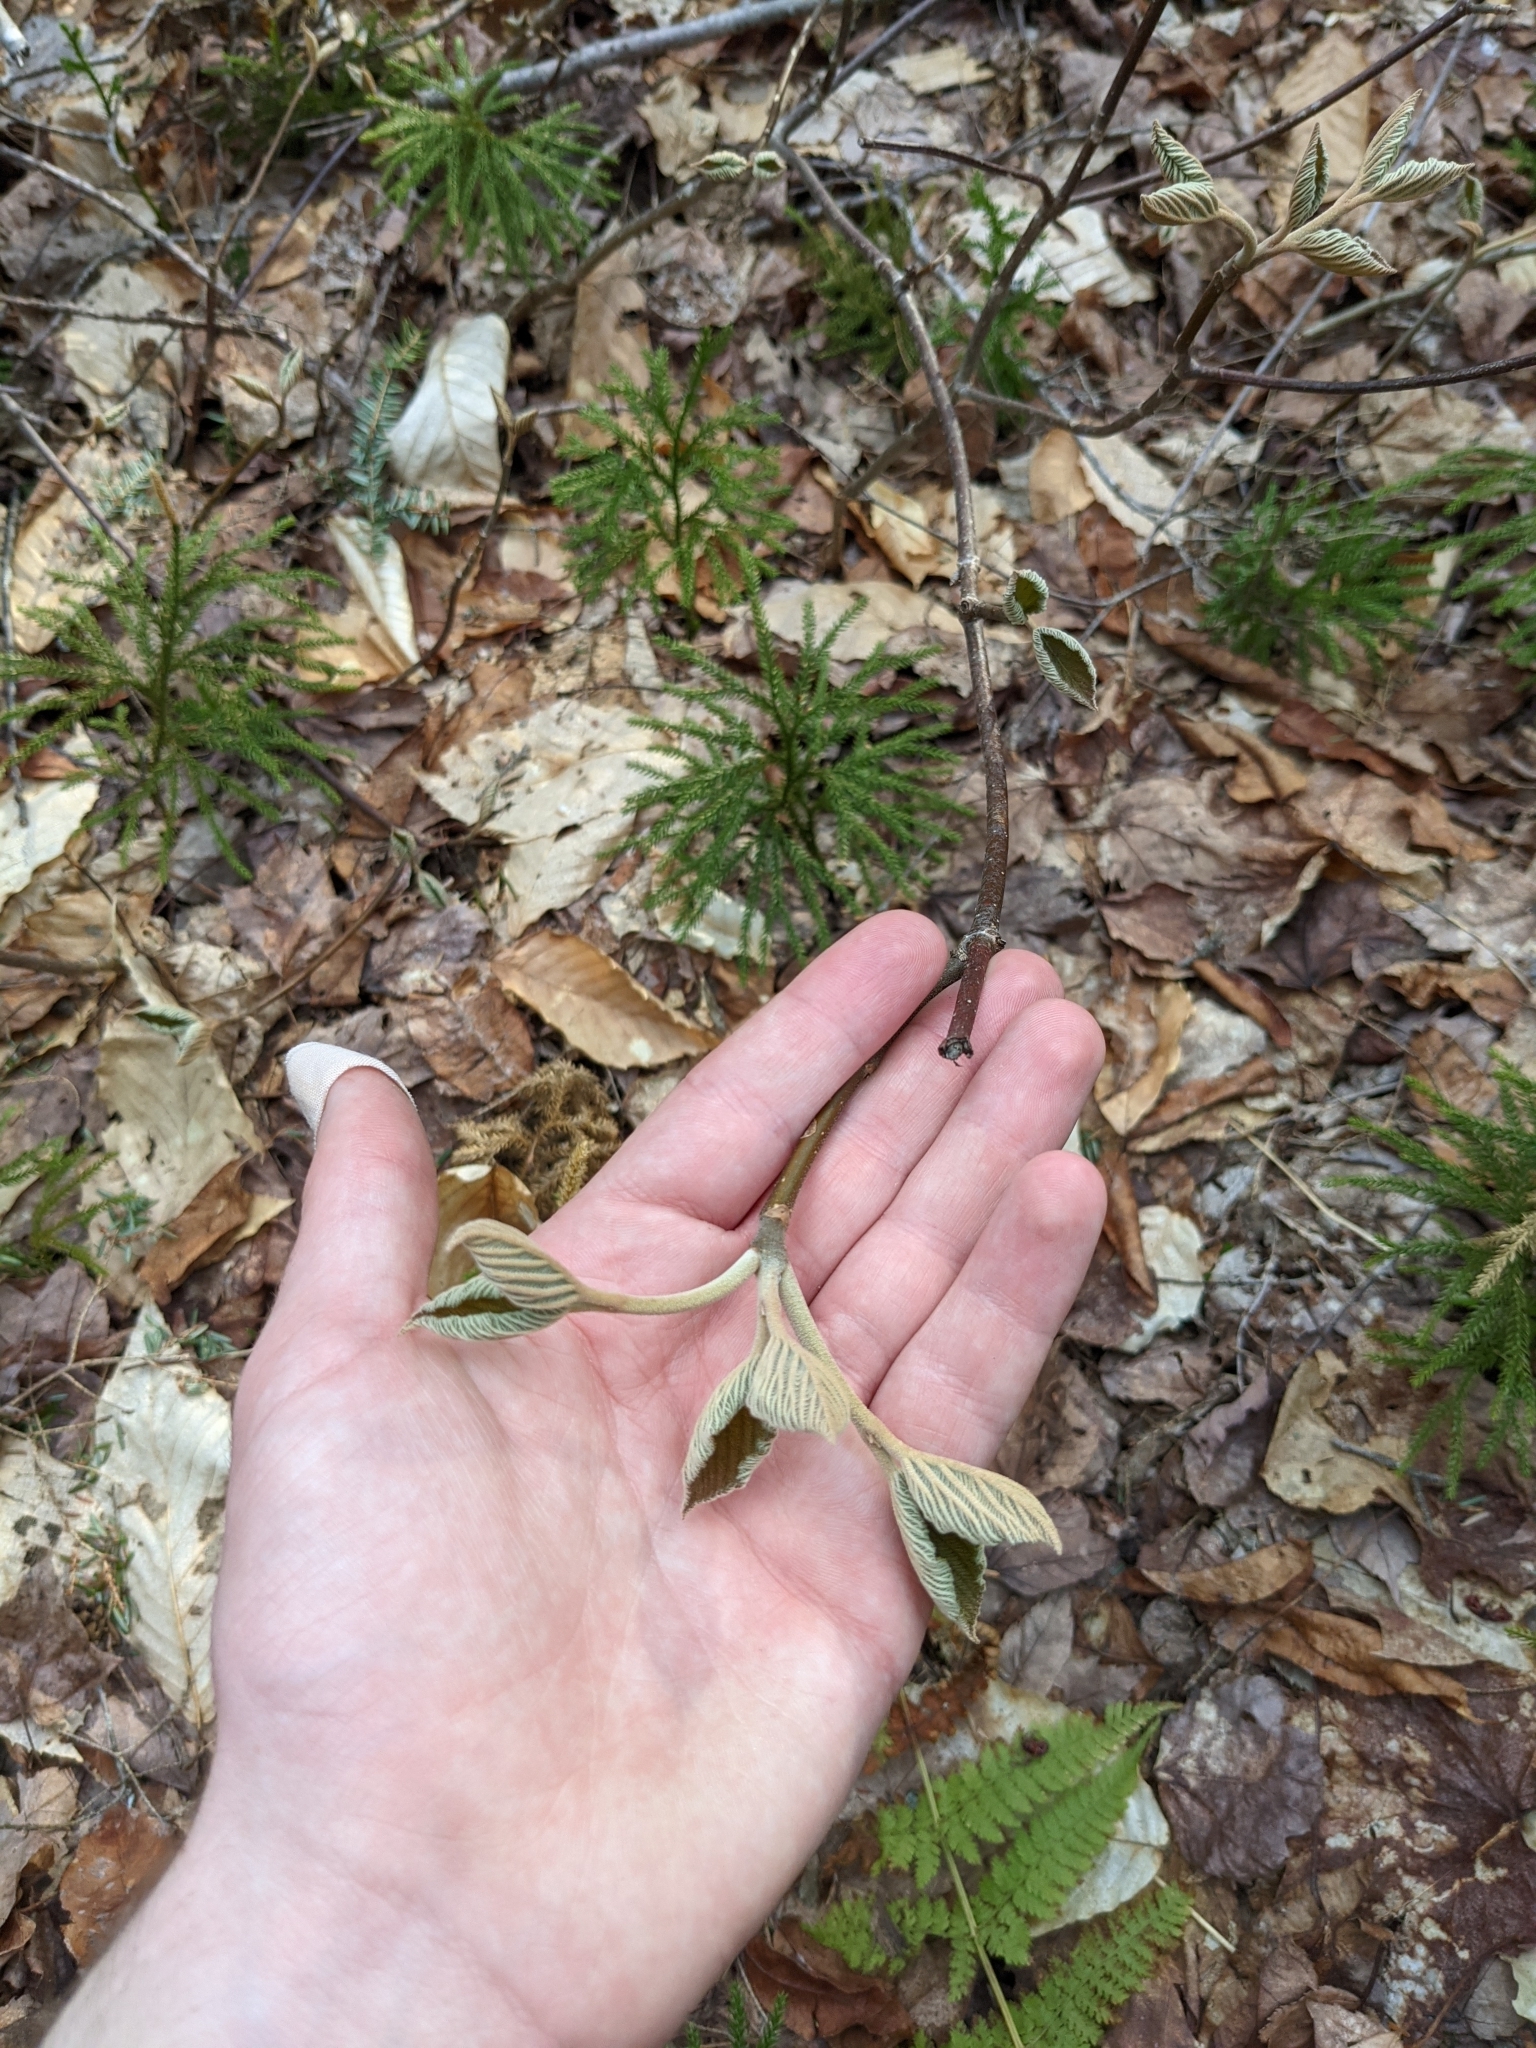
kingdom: Plantae
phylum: Tracheophyta
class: Magnoliopsida
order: Dipsacales
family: Viburnaceae
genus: Viburnum
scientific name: Viburnum lantanoides
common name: Hobblebush
